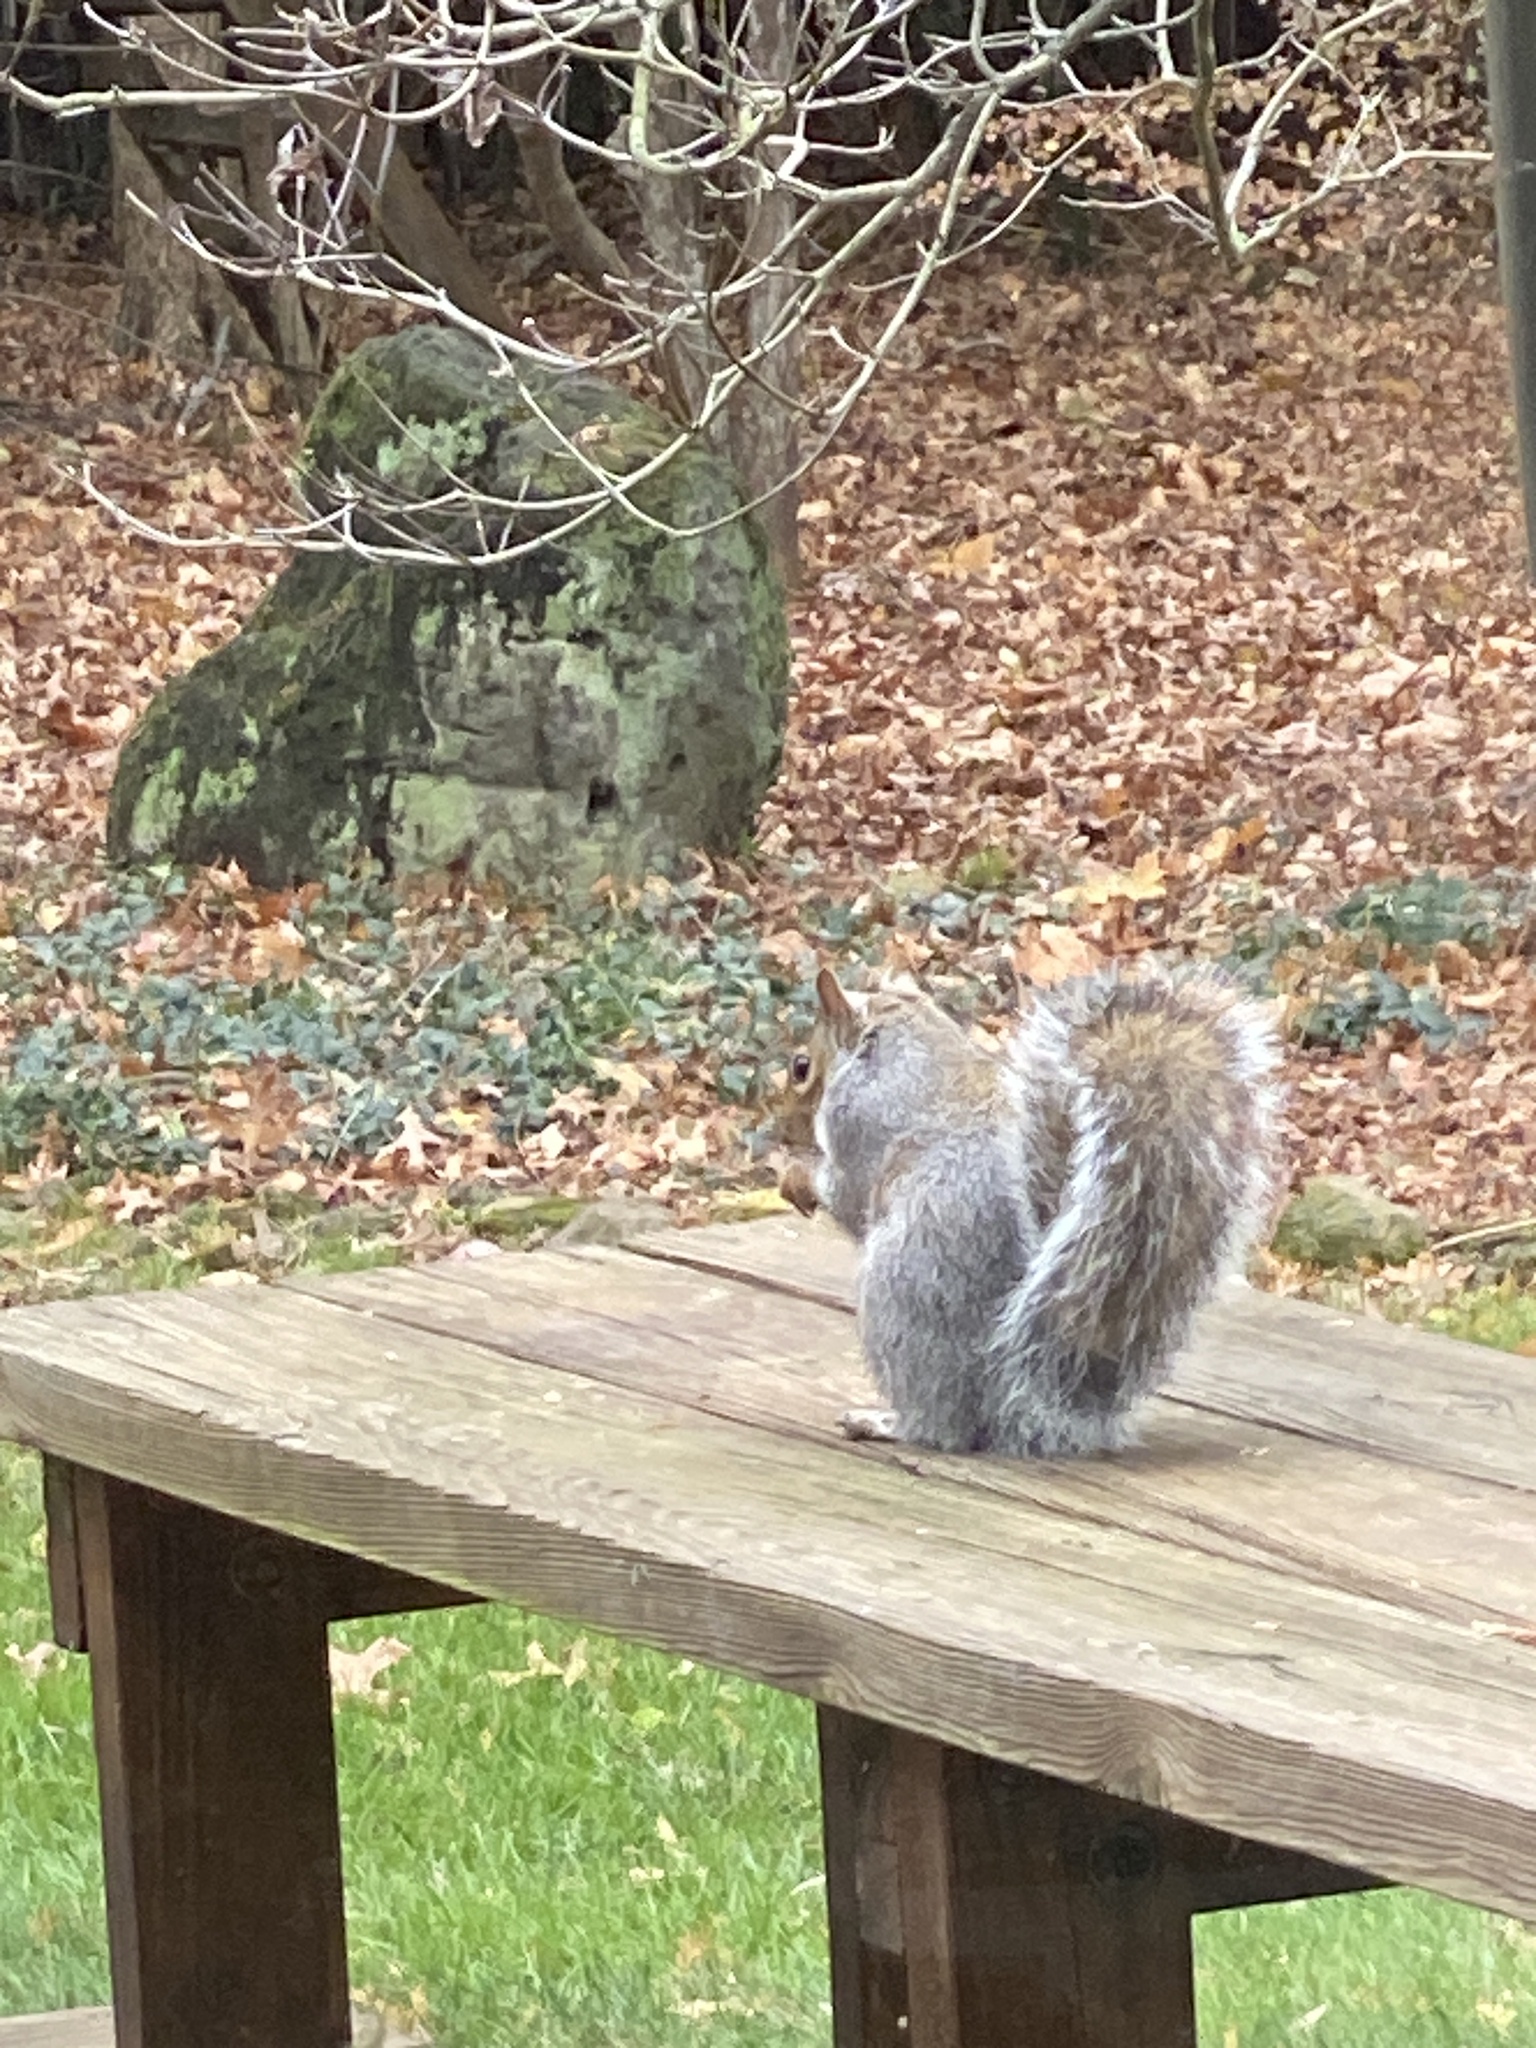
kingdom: Animalia
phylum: Chordata
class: Mammalia
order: Rodentia
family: Sciuridae
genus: Sciurus
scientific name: Sciurus carolinensis
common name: Eastern gray squirrel
